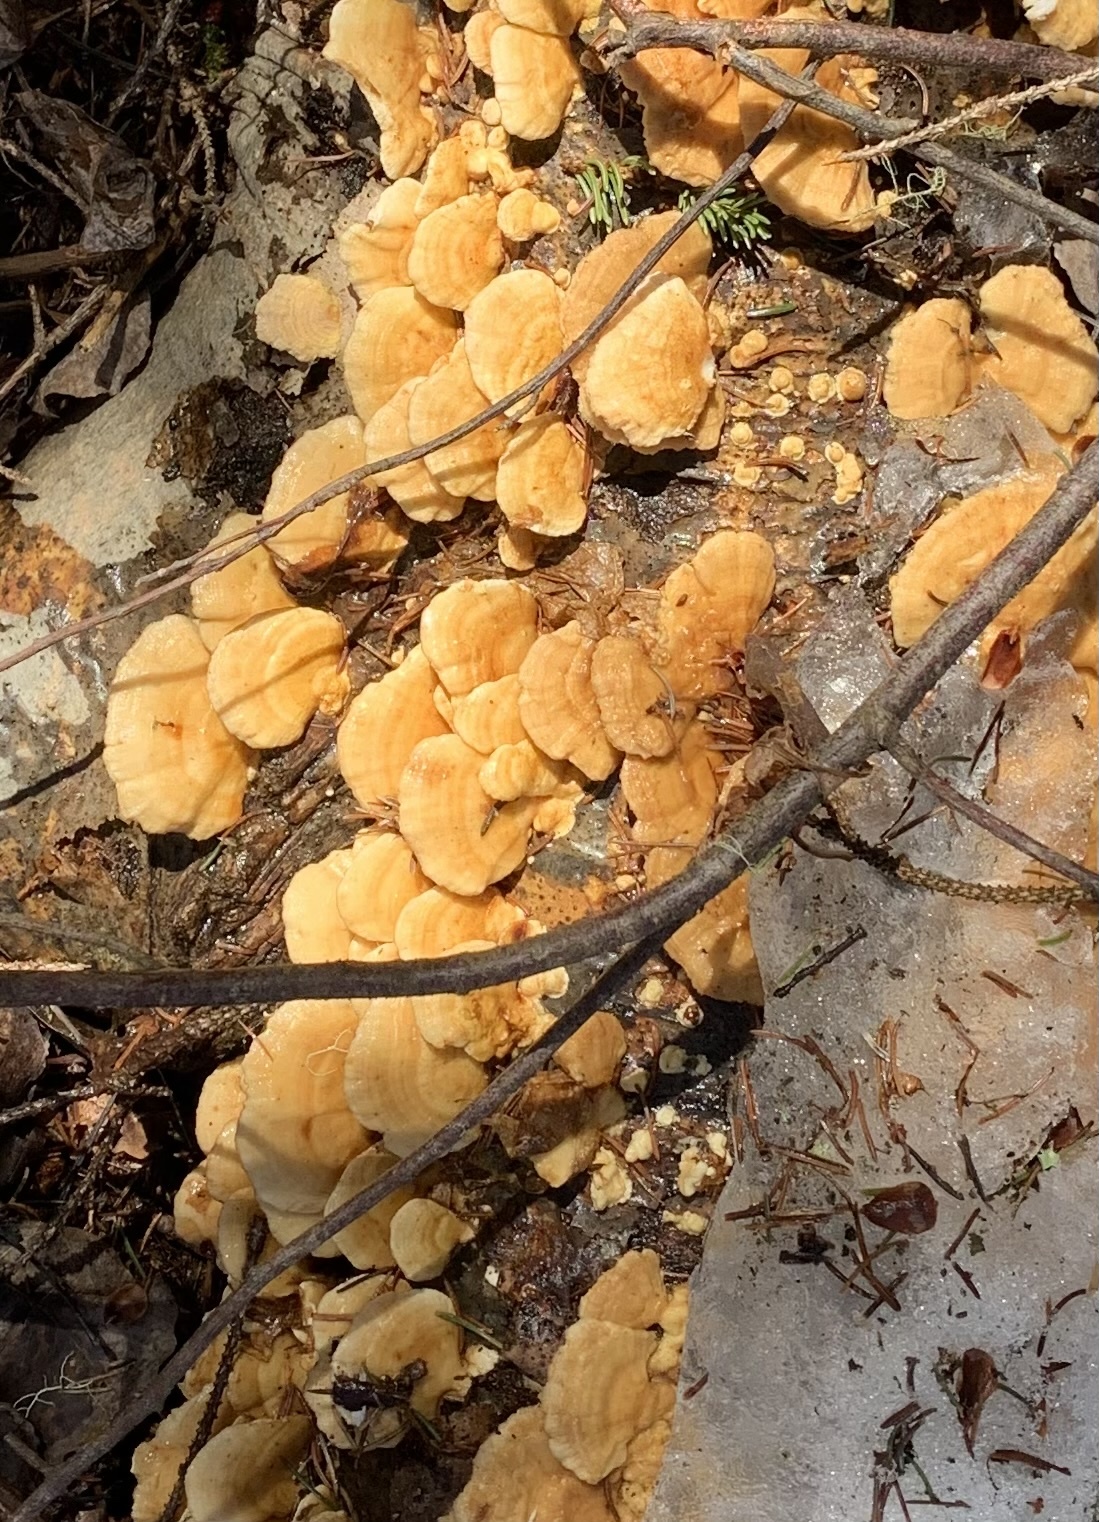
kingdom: Fungi
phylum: Basidiomycota
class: Agaricomycetes
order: Polyporales
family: Polyporaceae
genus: Trametes
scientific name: Trametes ochracea
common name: Ochre bracket
